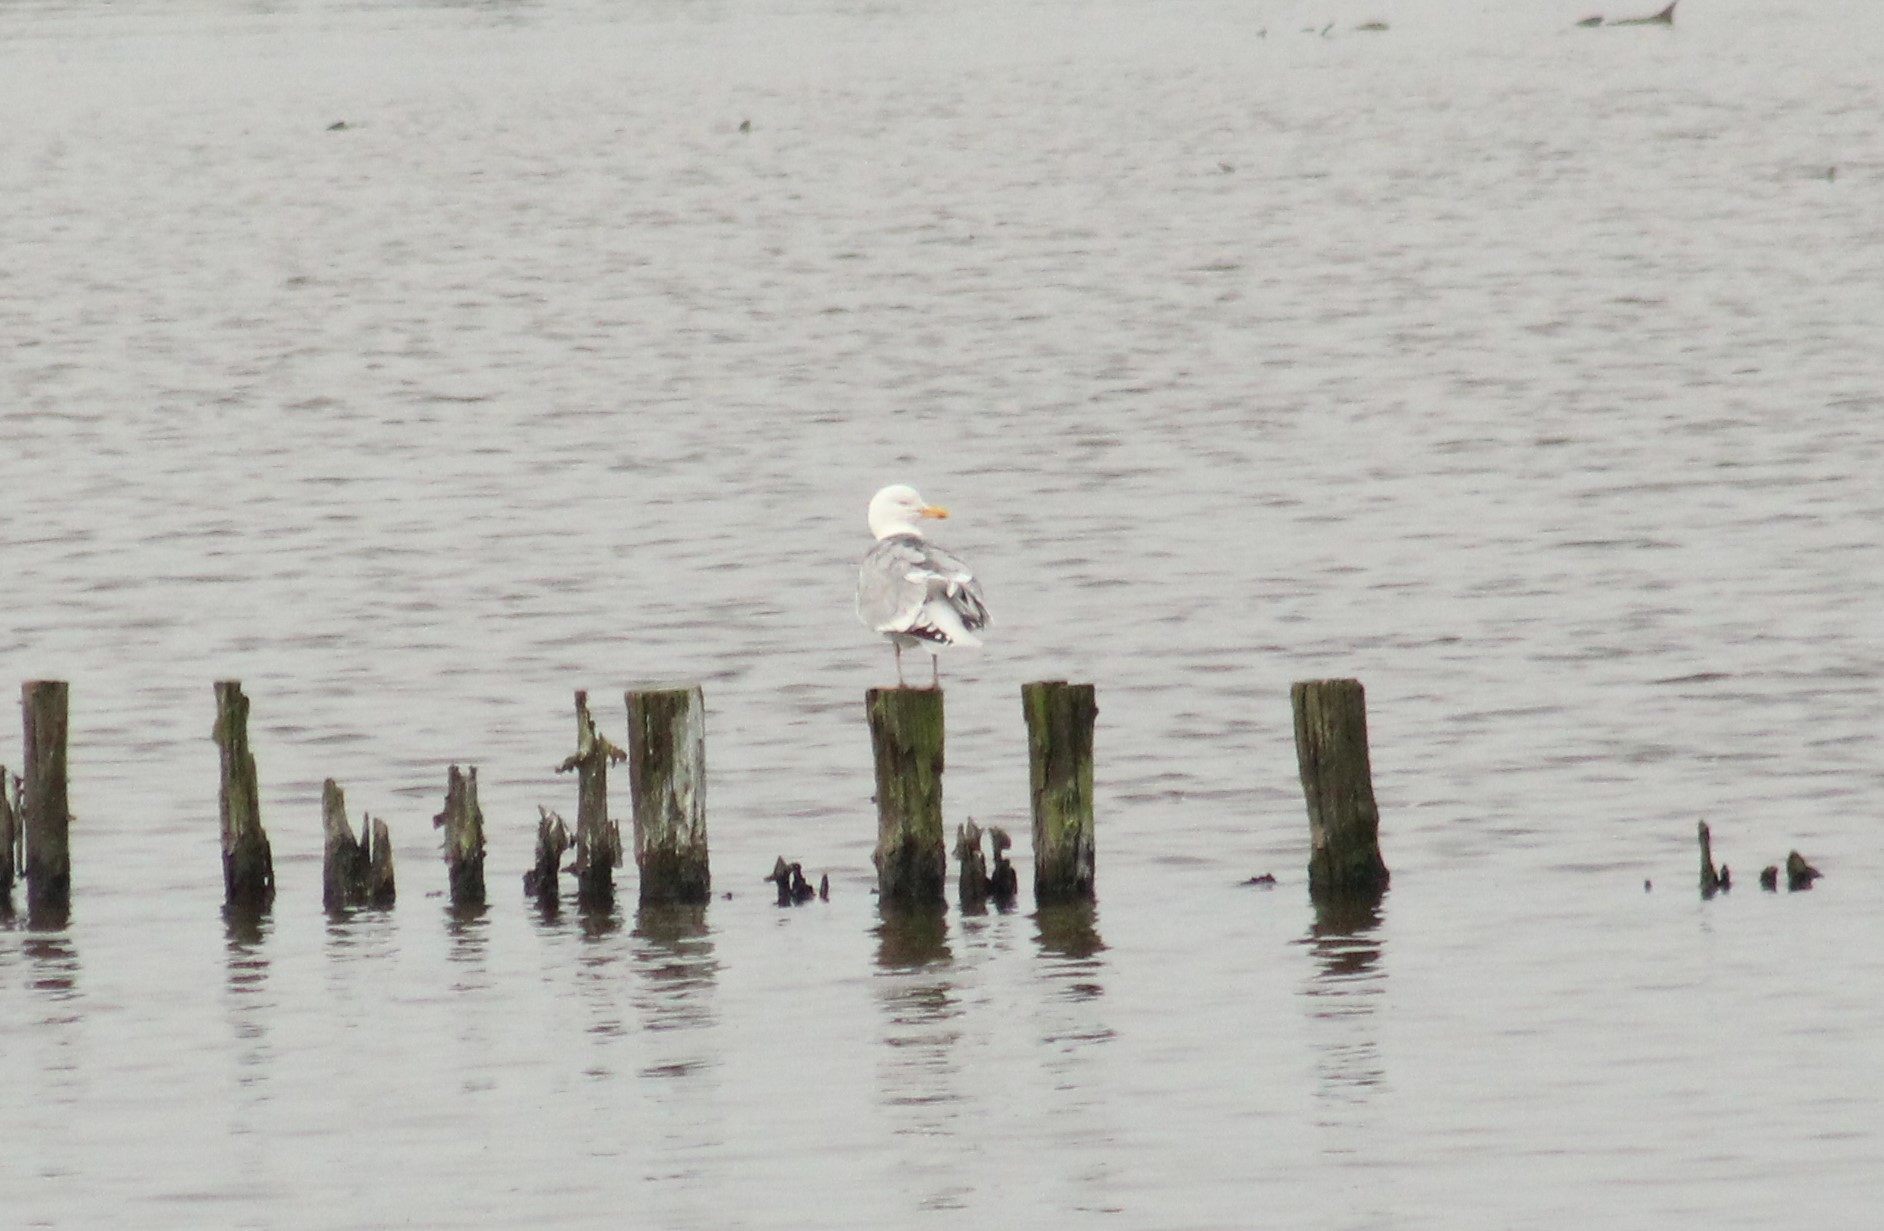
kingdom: Animalia
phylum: Chordata
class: Aves
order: Charadriiformes
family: Laridae
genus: Larus
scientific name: Larus argentatus
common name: Herring gull
